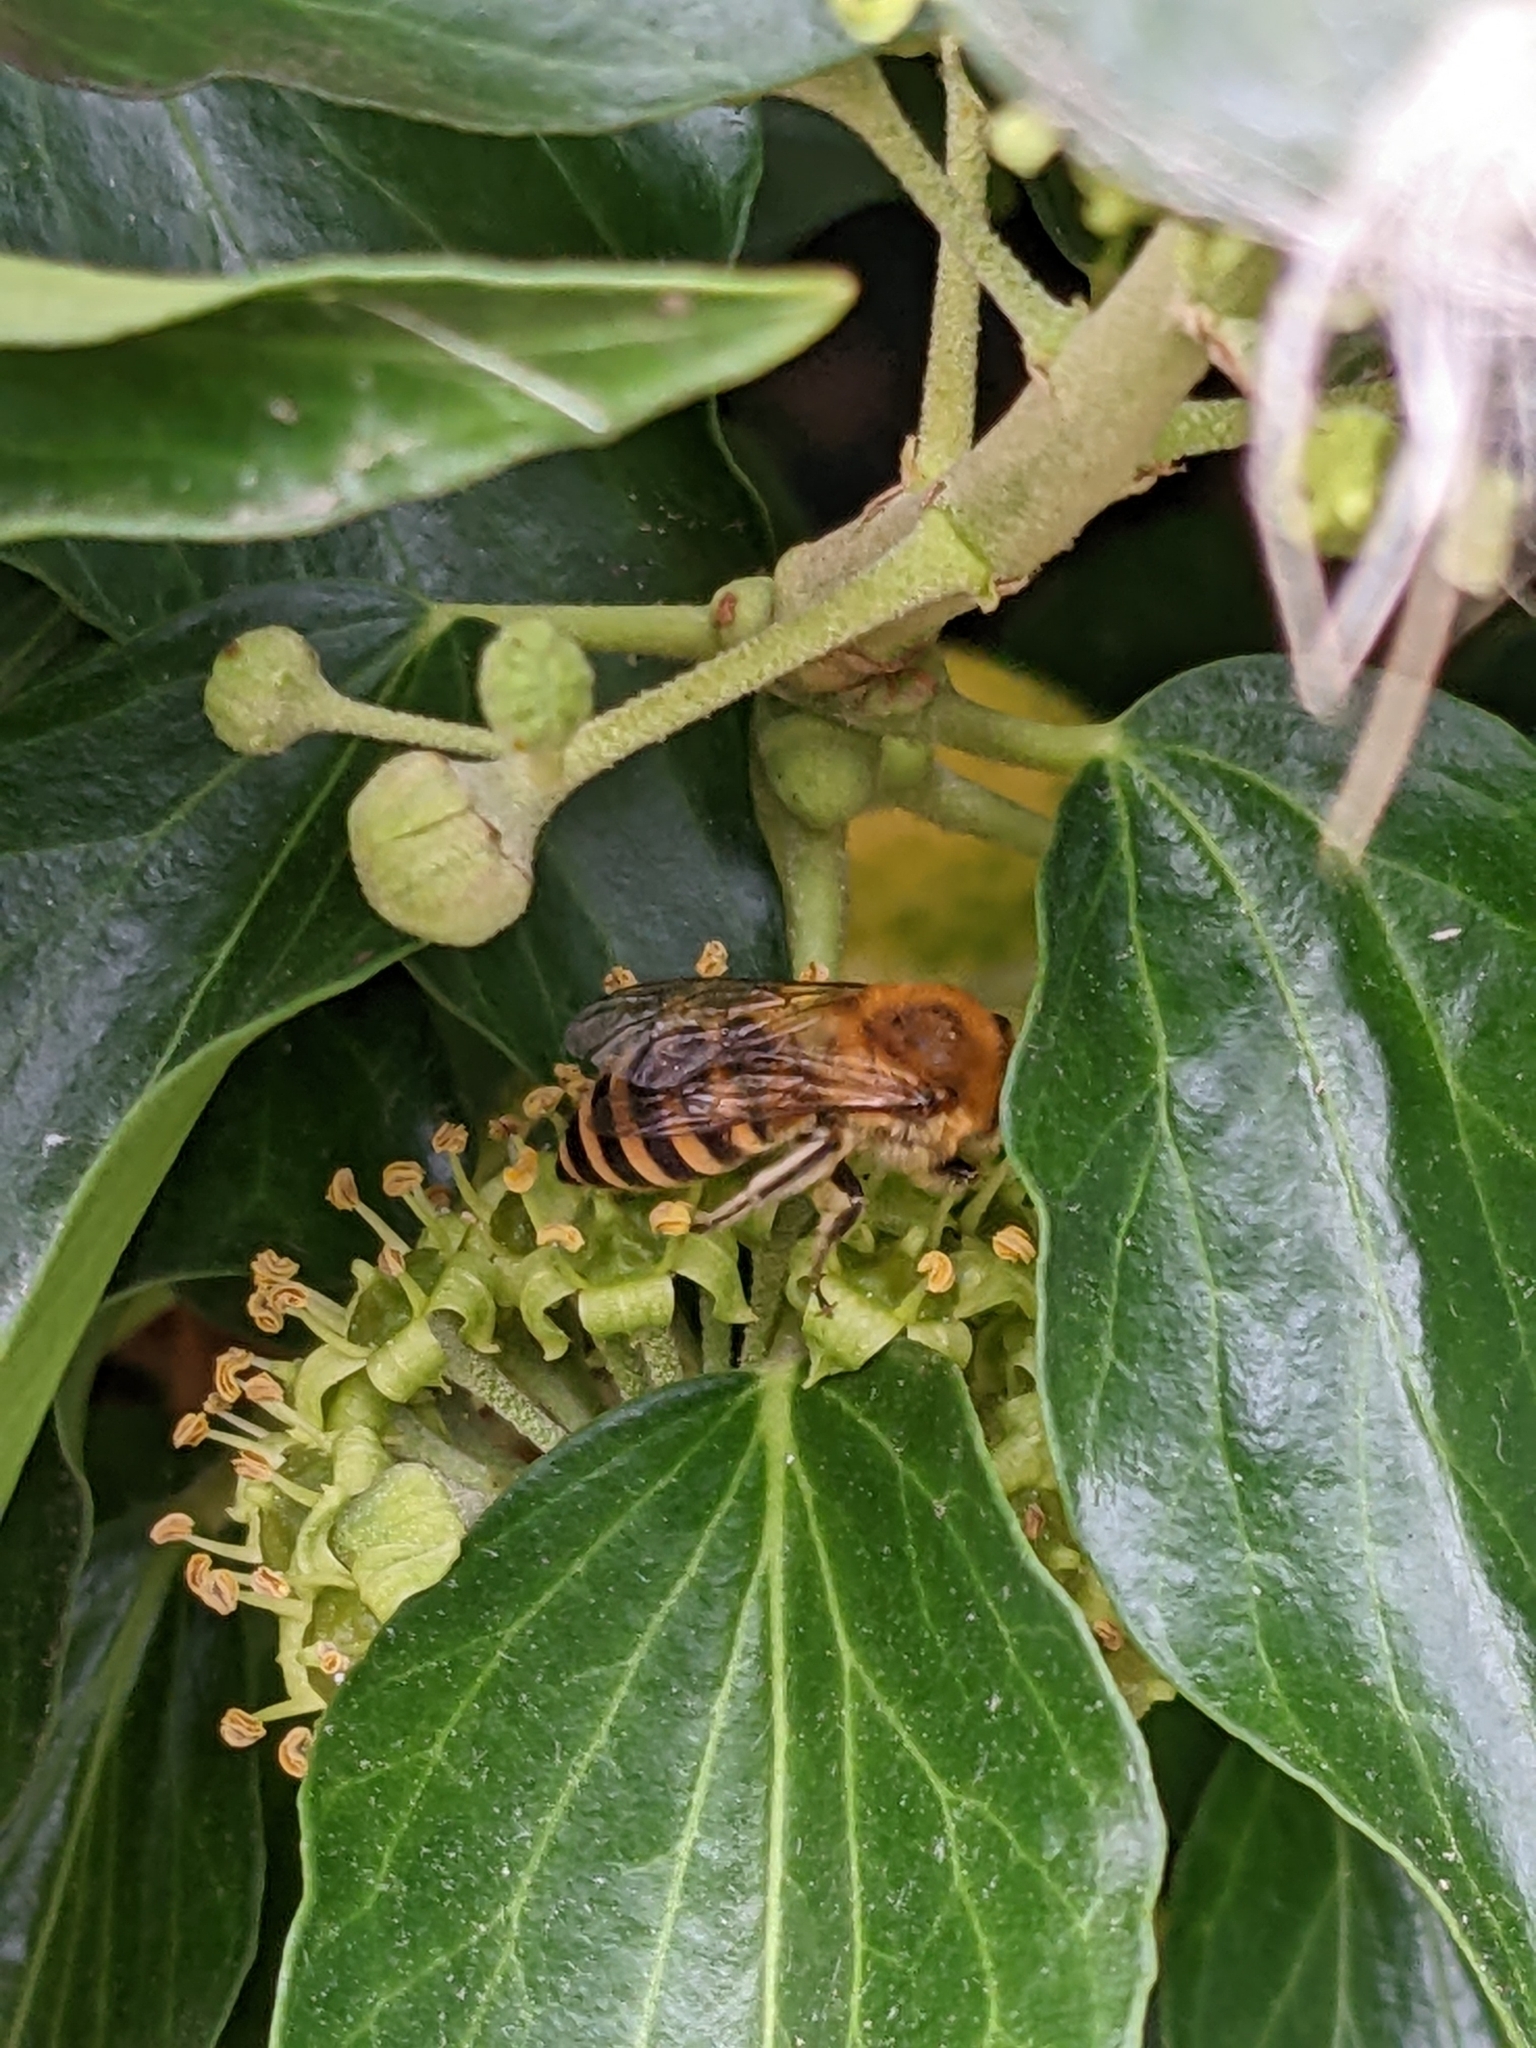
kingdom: Animalia
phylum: Arthropoda
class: Insecta
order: Hymenoptera
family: Colletidae
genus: Colletes
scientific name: Colletes hederae
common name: Ivy bee
